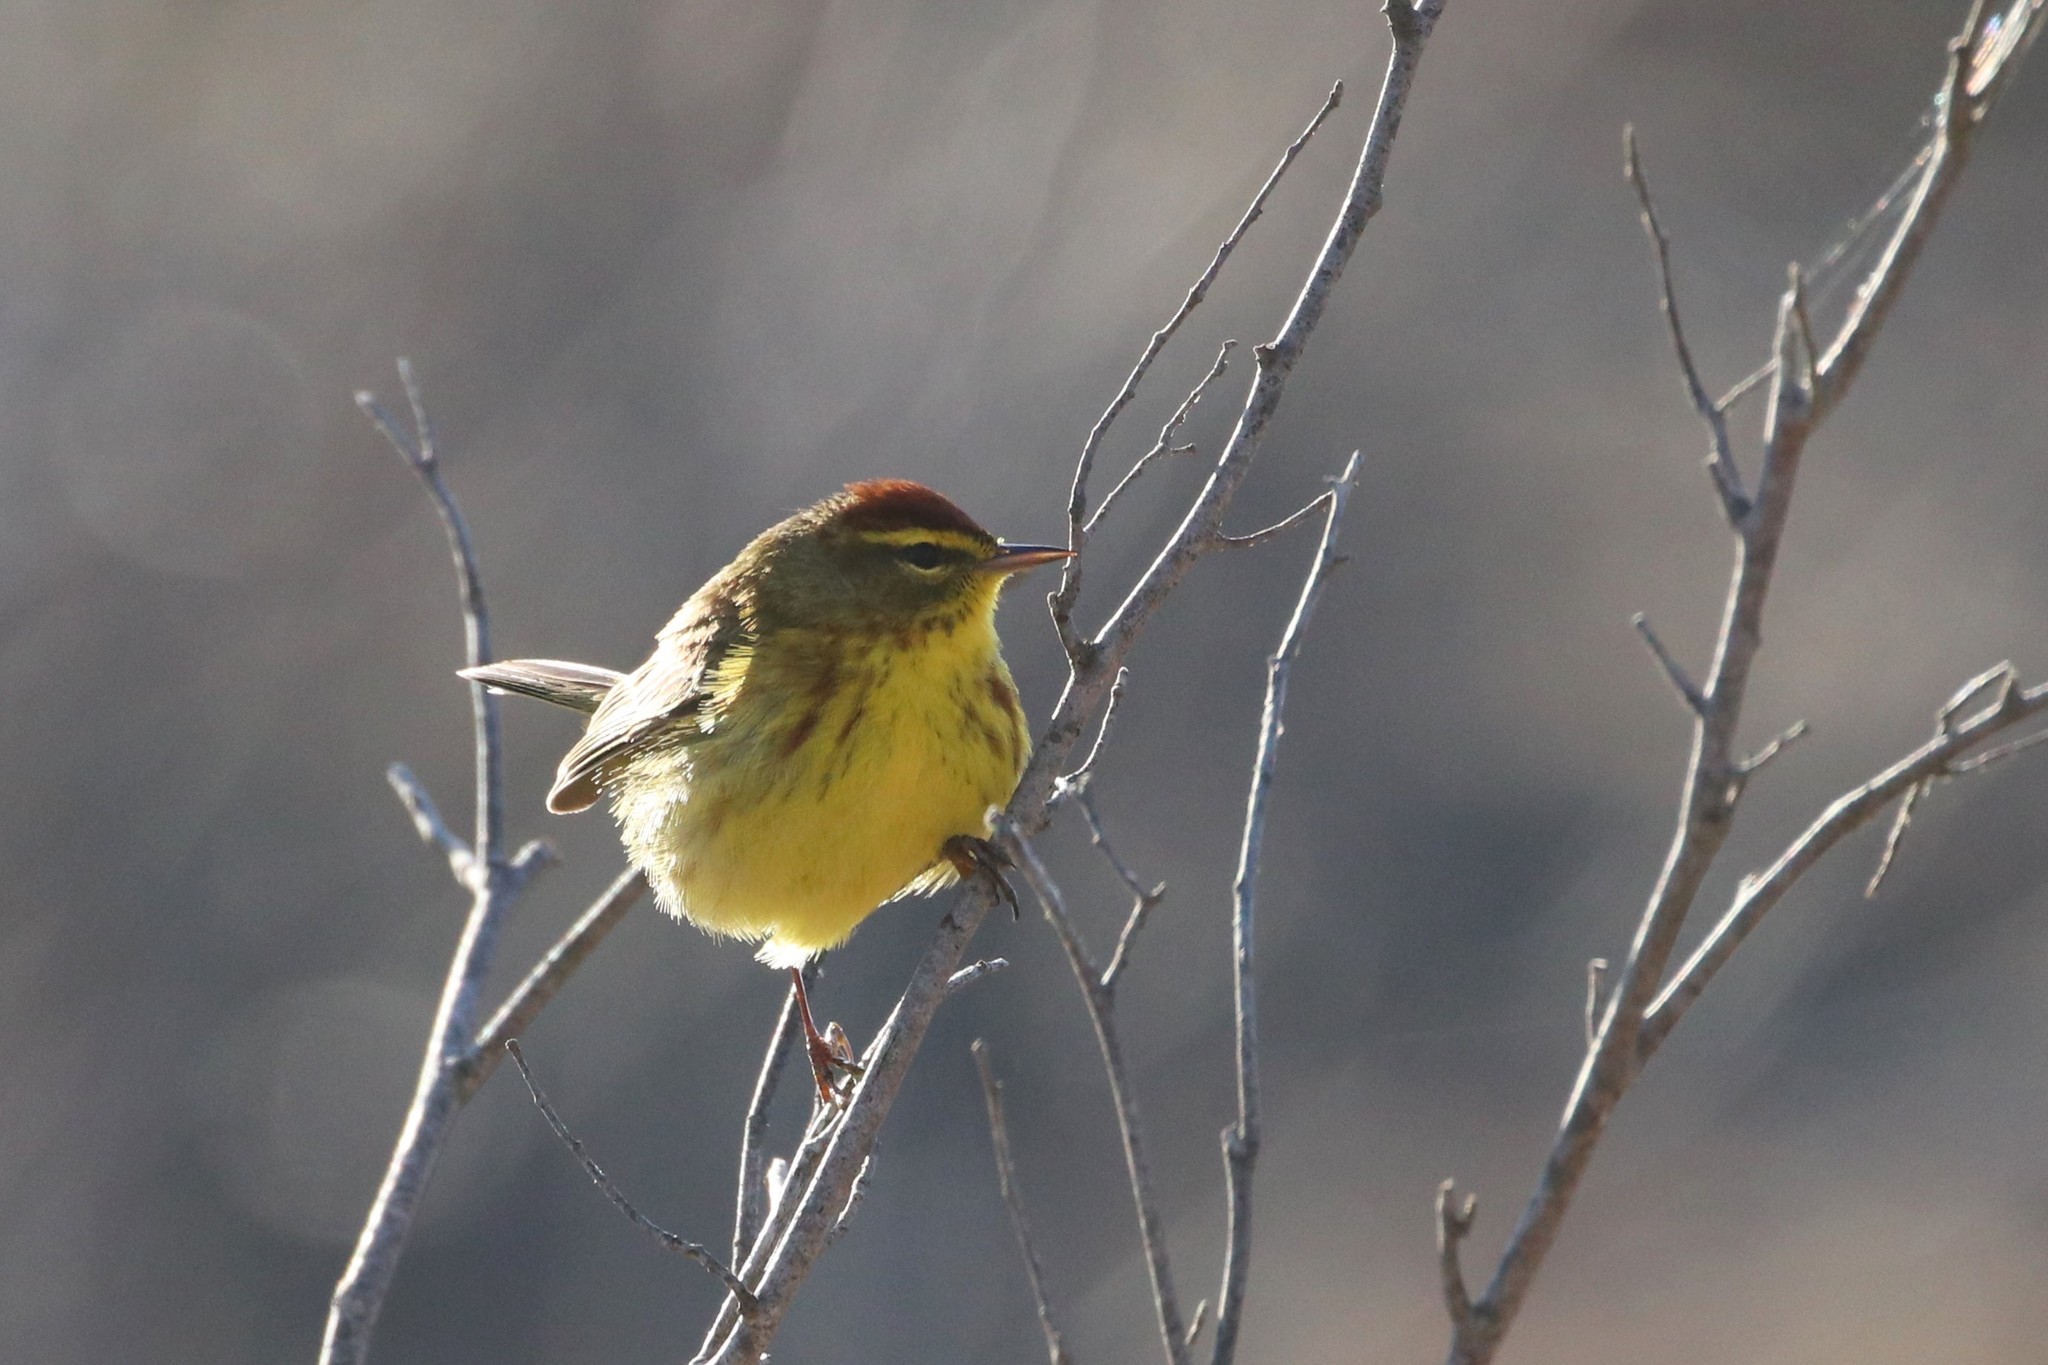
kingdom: Animalia
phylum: Chordata
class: Aves
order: Passeriformes
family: Parulidae
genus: Setophaga
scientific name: Setophaga palmarum
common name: Palm warbler
